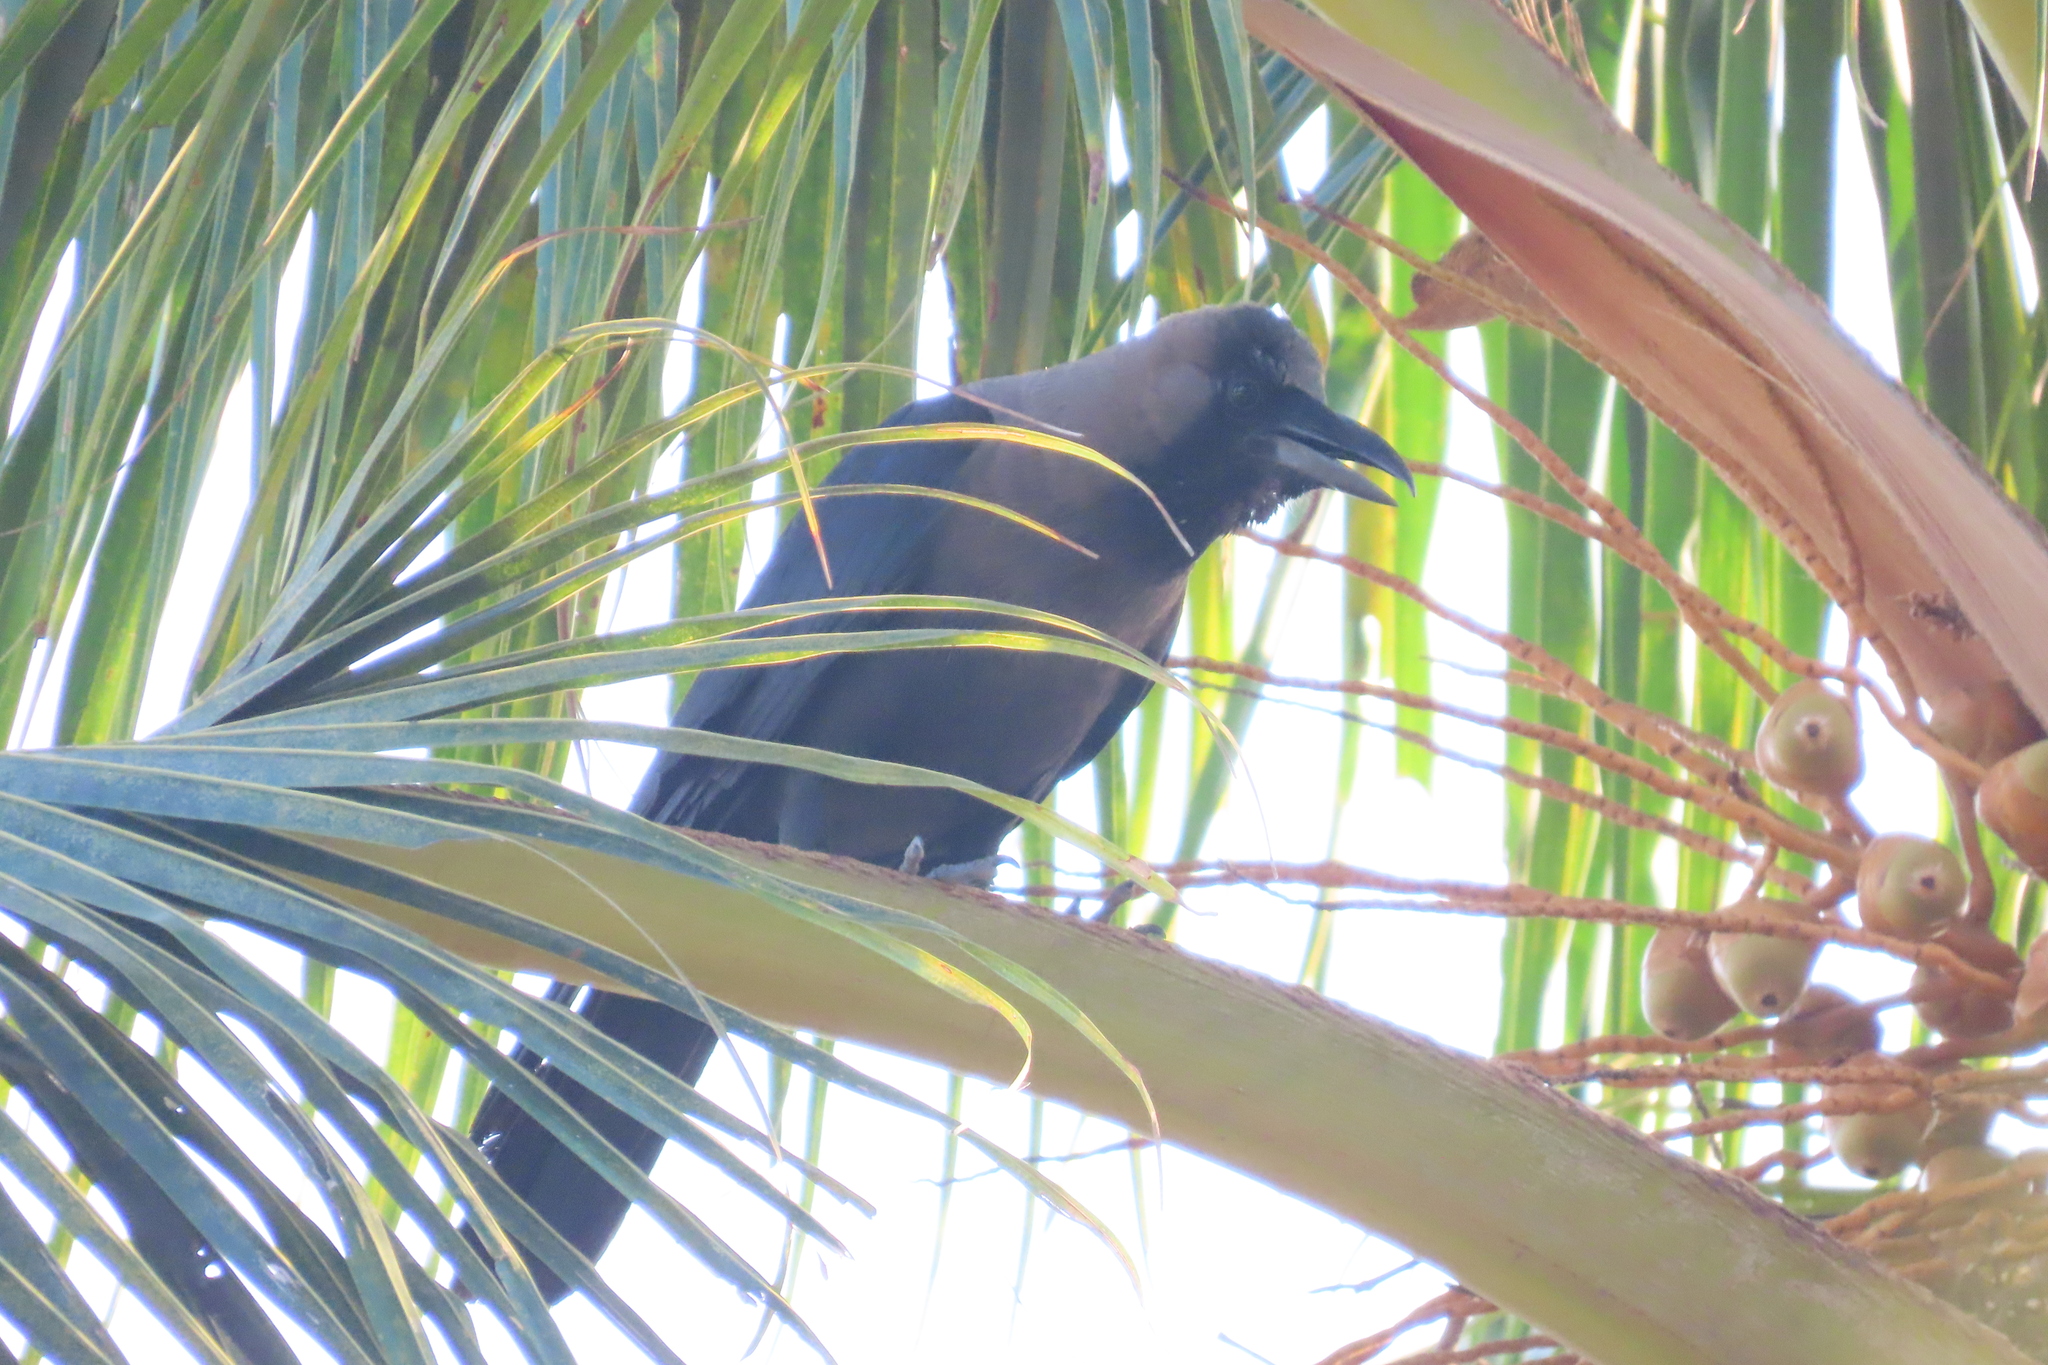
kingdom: Animalia
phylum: Chordata
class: Aves
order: Passeriformes
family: Corvidae
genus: Corvus
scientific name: Corvus splendens
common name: House crow
